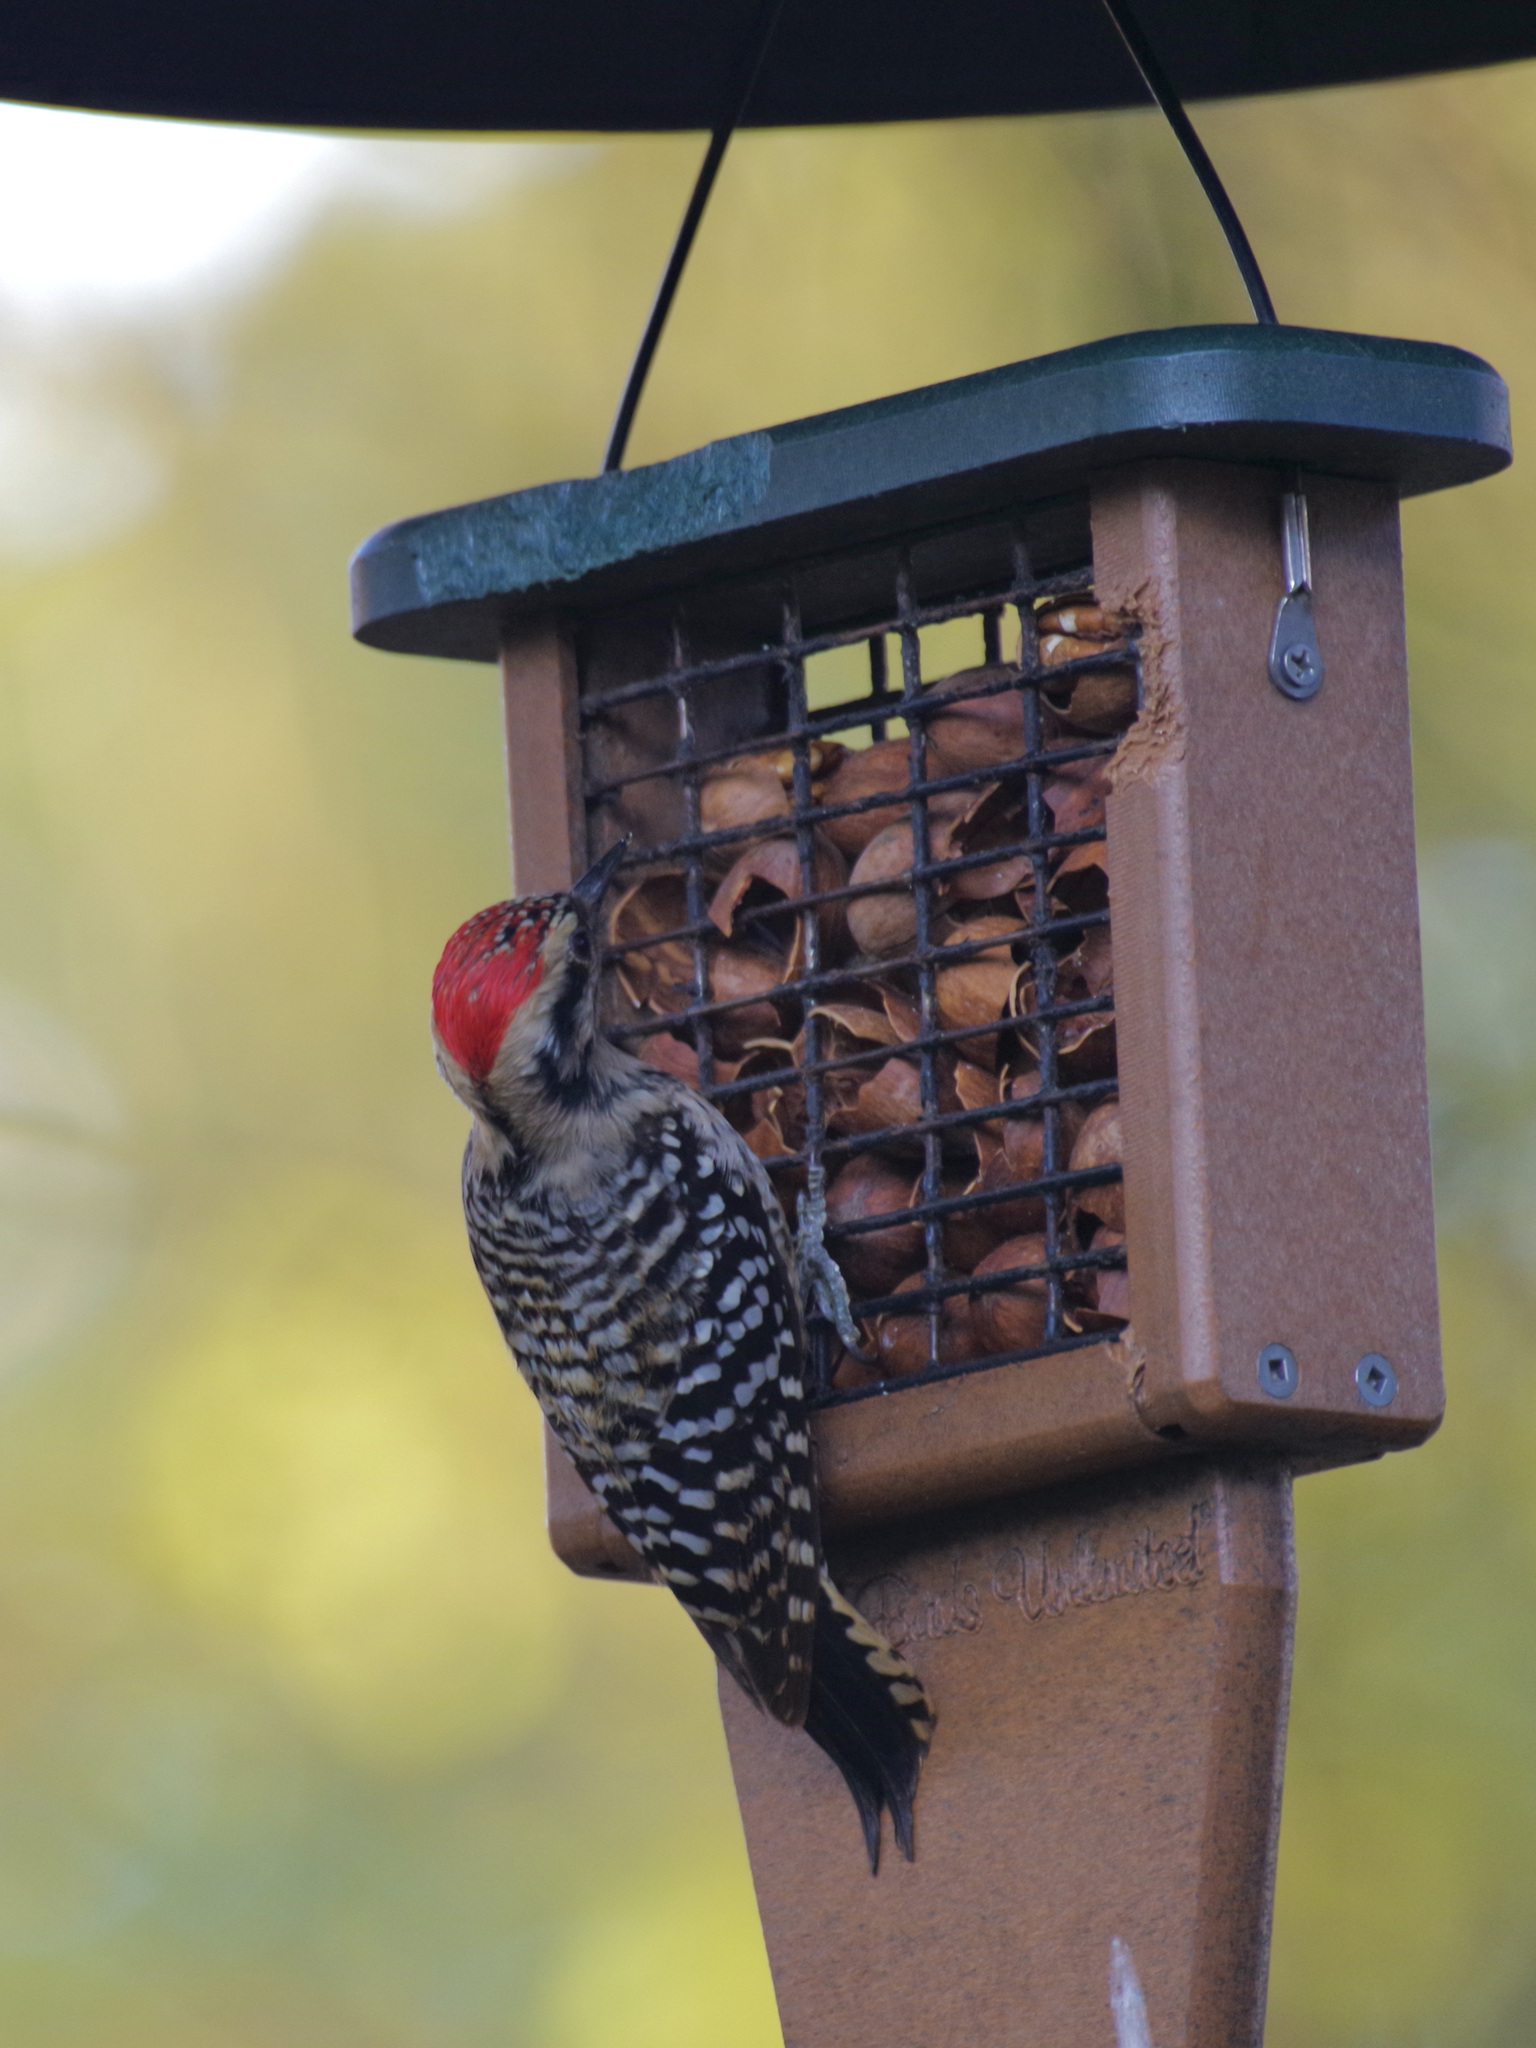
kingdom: Animalia
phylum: Chordata
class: Aves
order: Piciformes
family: Picidae
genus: Dryobates
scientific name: Dryobates scalaris
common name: Ladder-backed woodpecker
